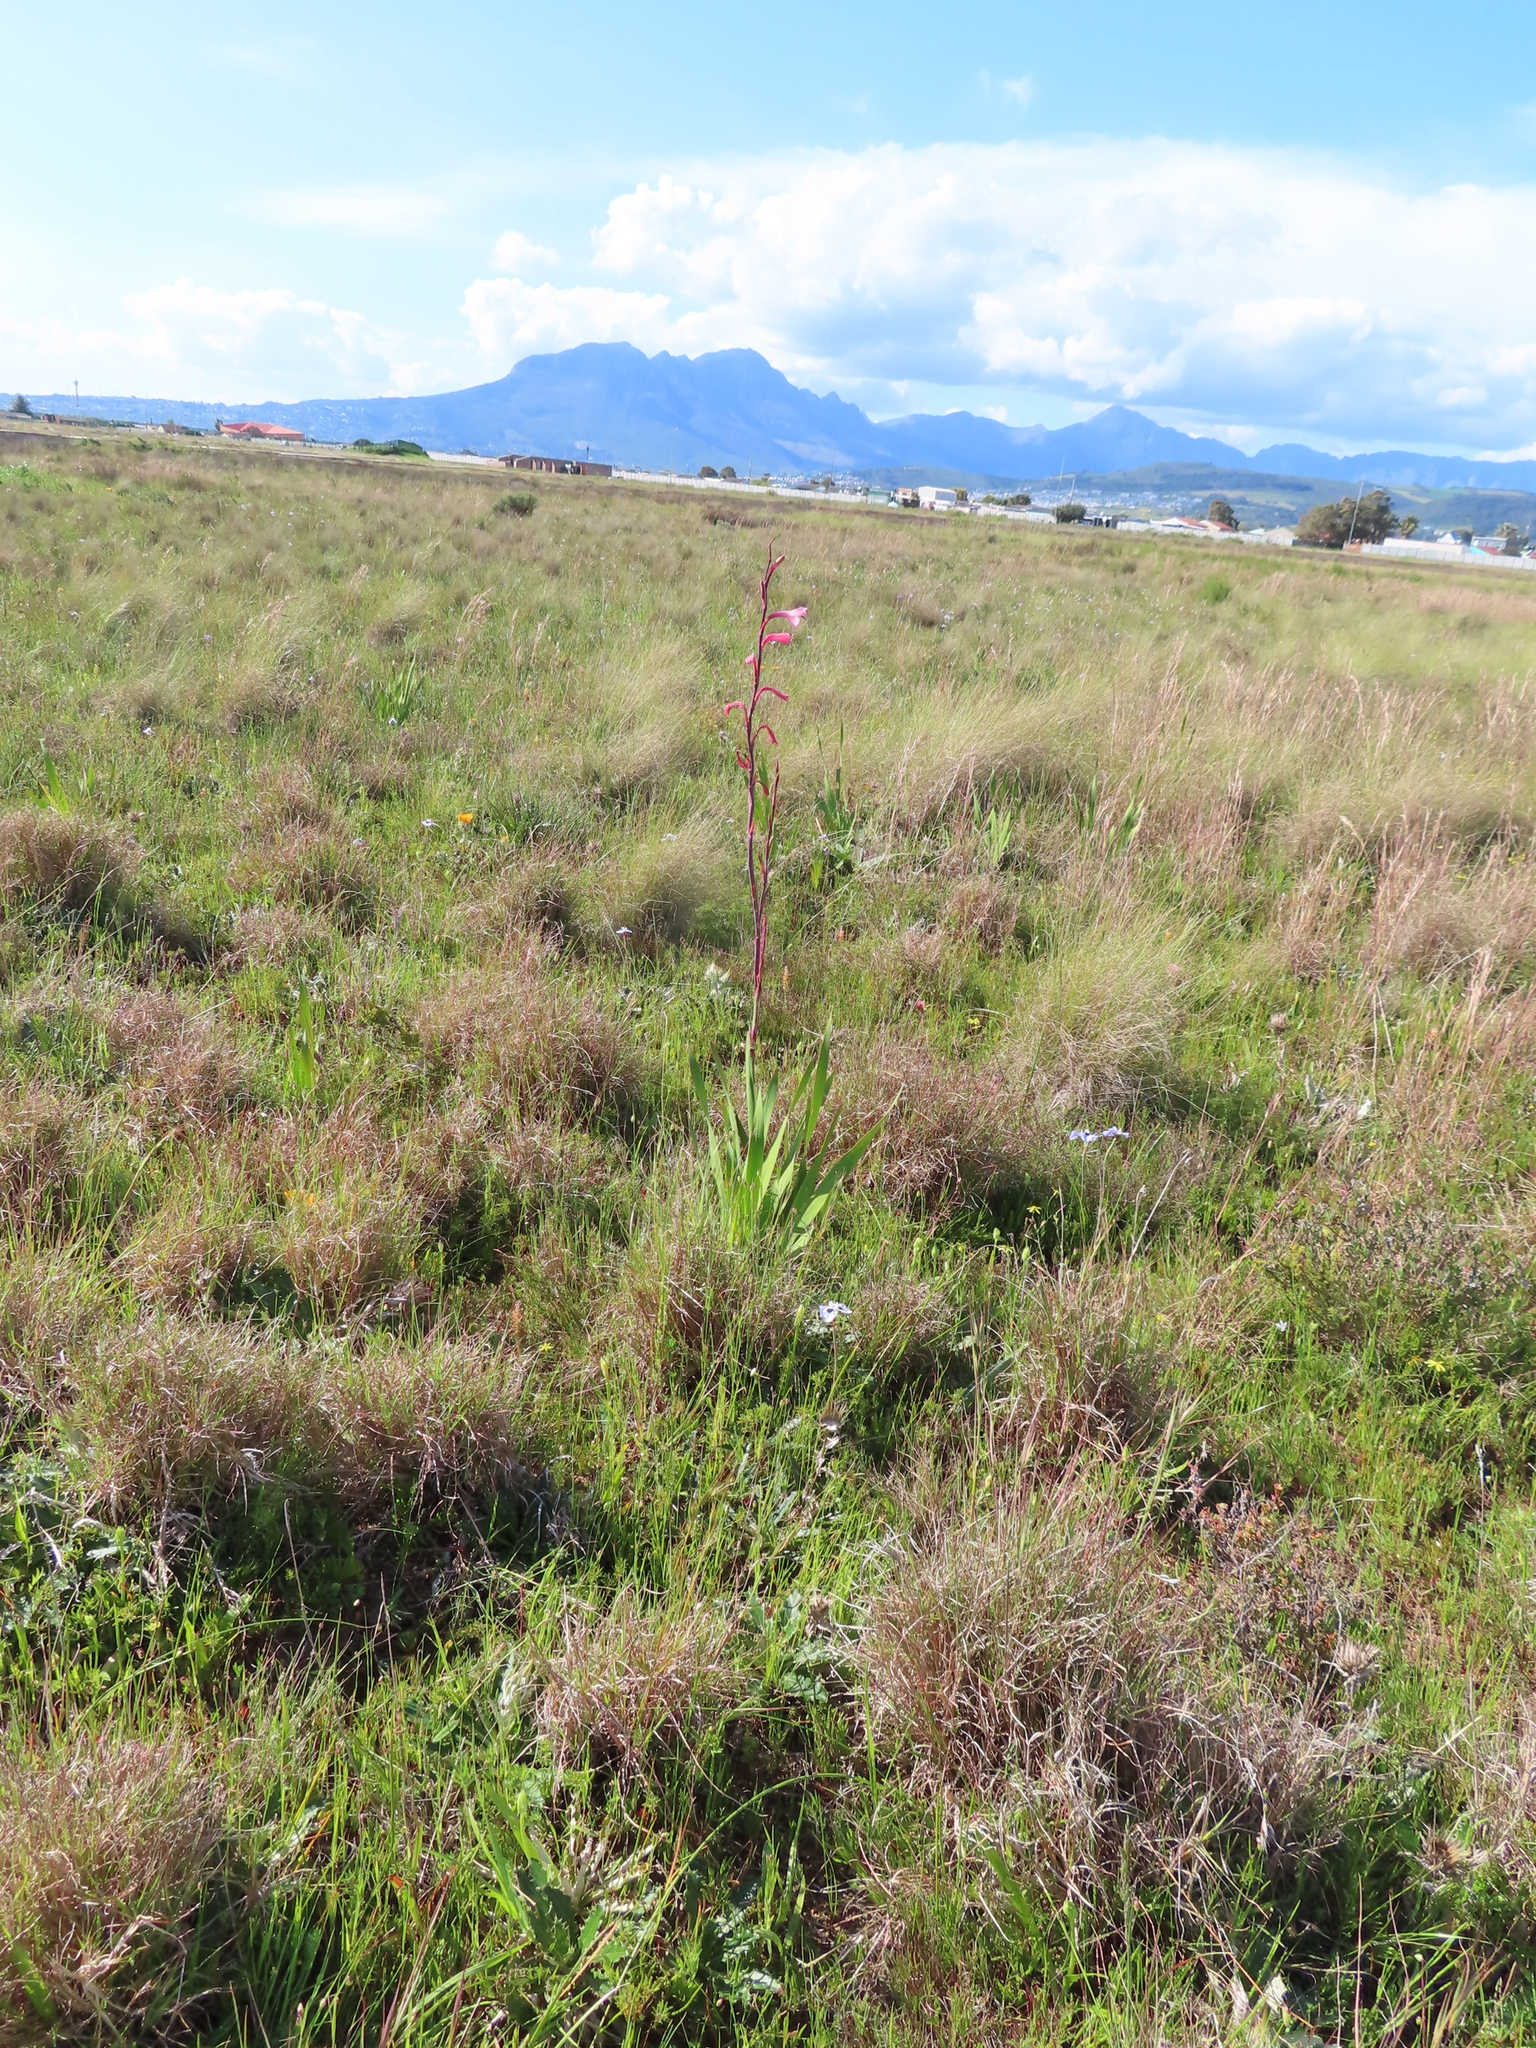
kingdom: Plantae
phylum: Tracheophyta
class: Liliopsida
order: Asparagales
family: Iridaceae
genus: Watsonia
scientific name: Watsonia meriana
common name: Bulbil bugle-lily
